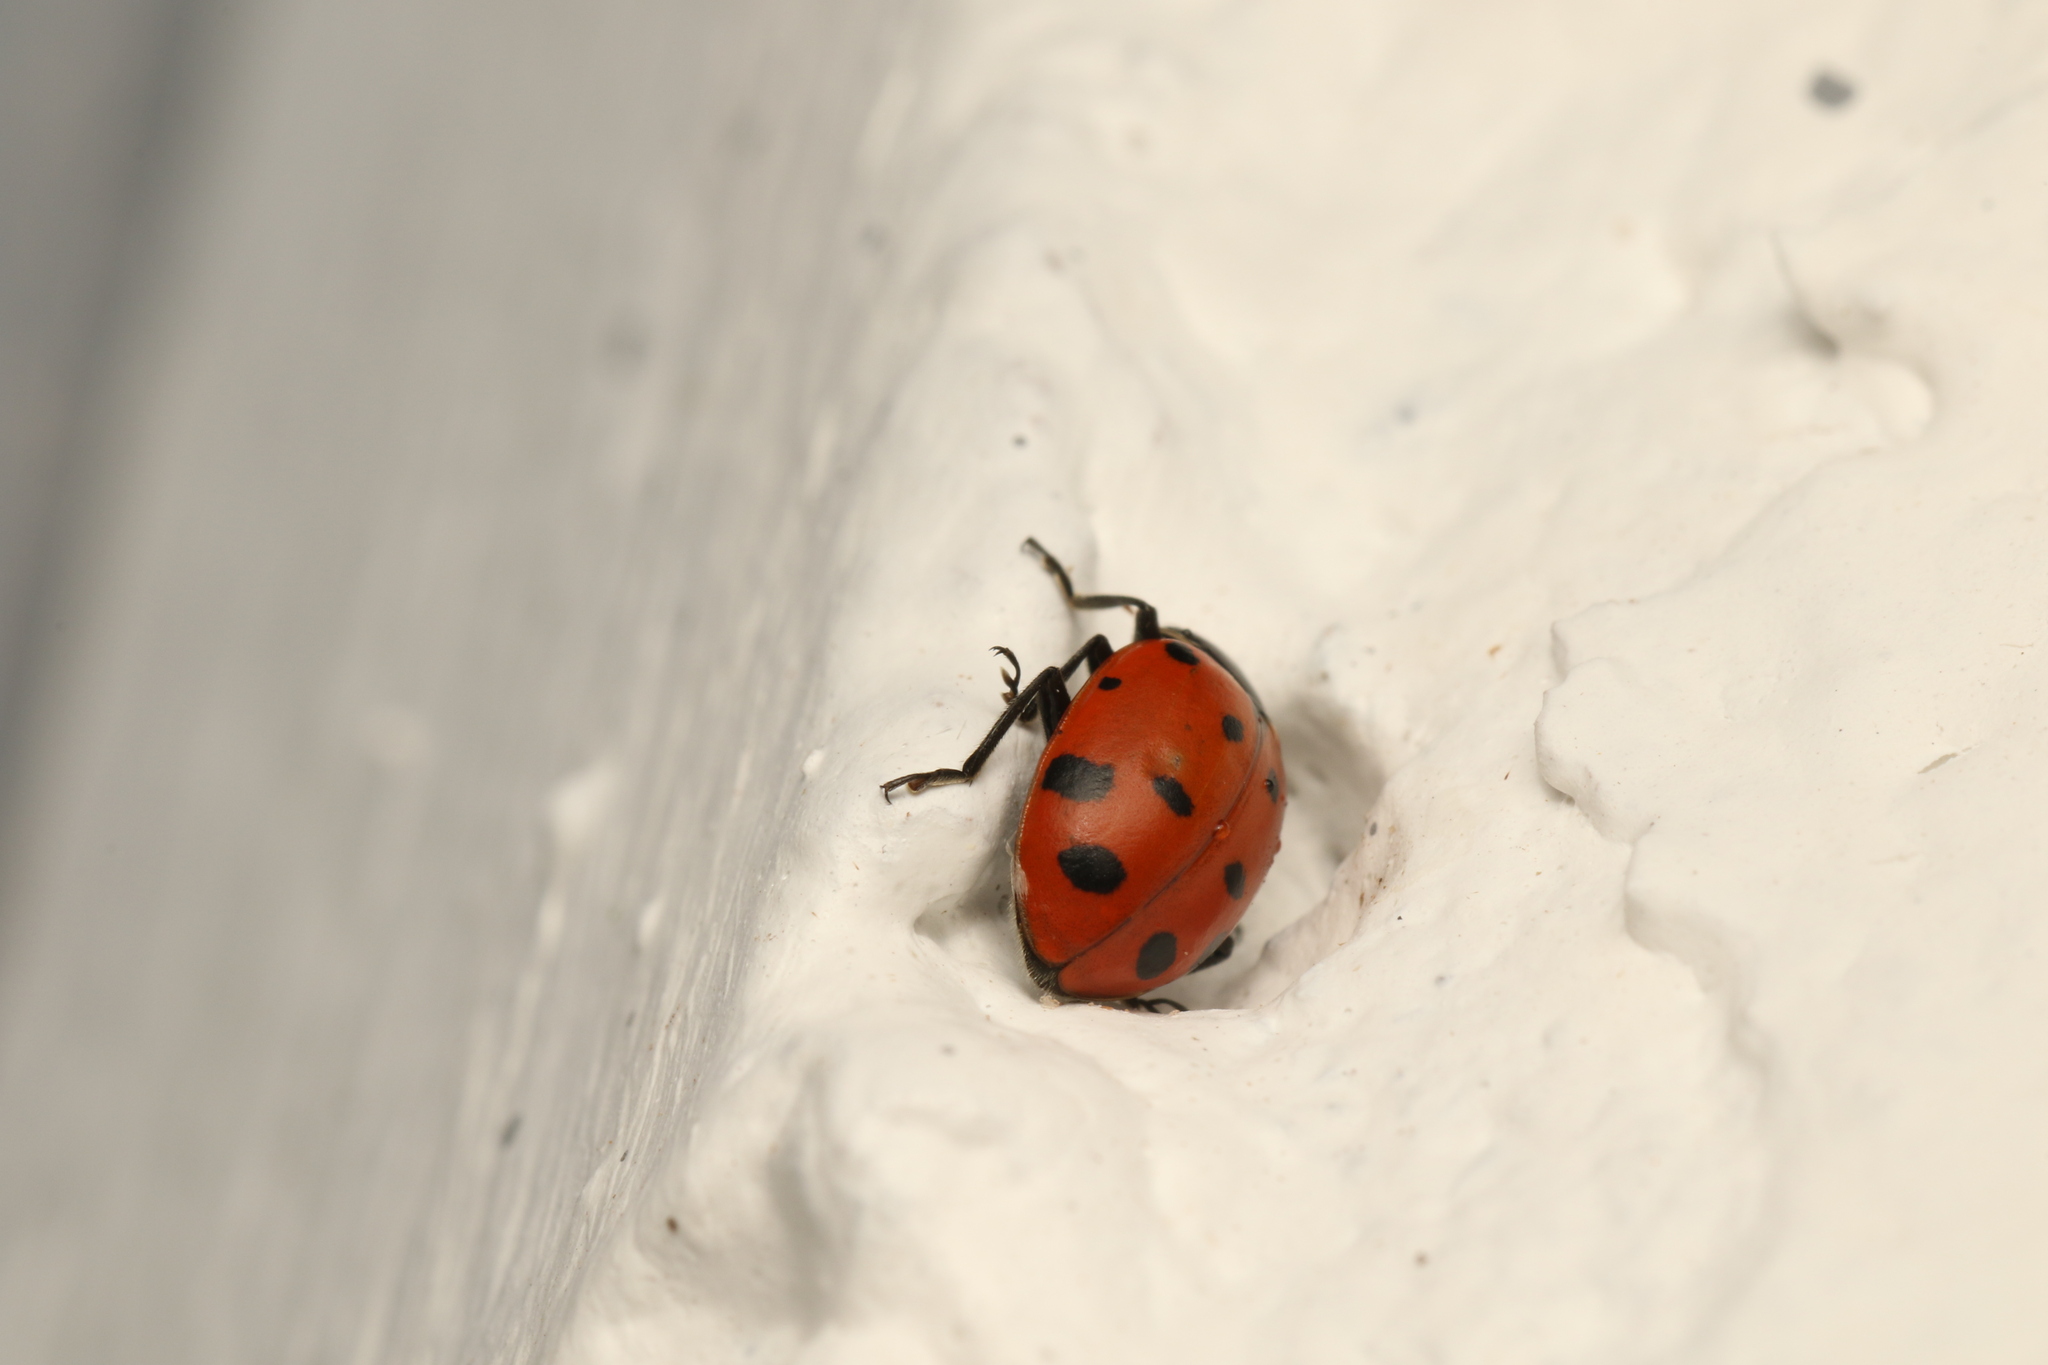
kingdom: Animalia
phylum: Arthropoda
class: Insecta
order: Coleoptera
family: Coccinellidae
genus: Hippodamia
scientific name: Hippodamia convergens
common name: Convergent lady beetle
